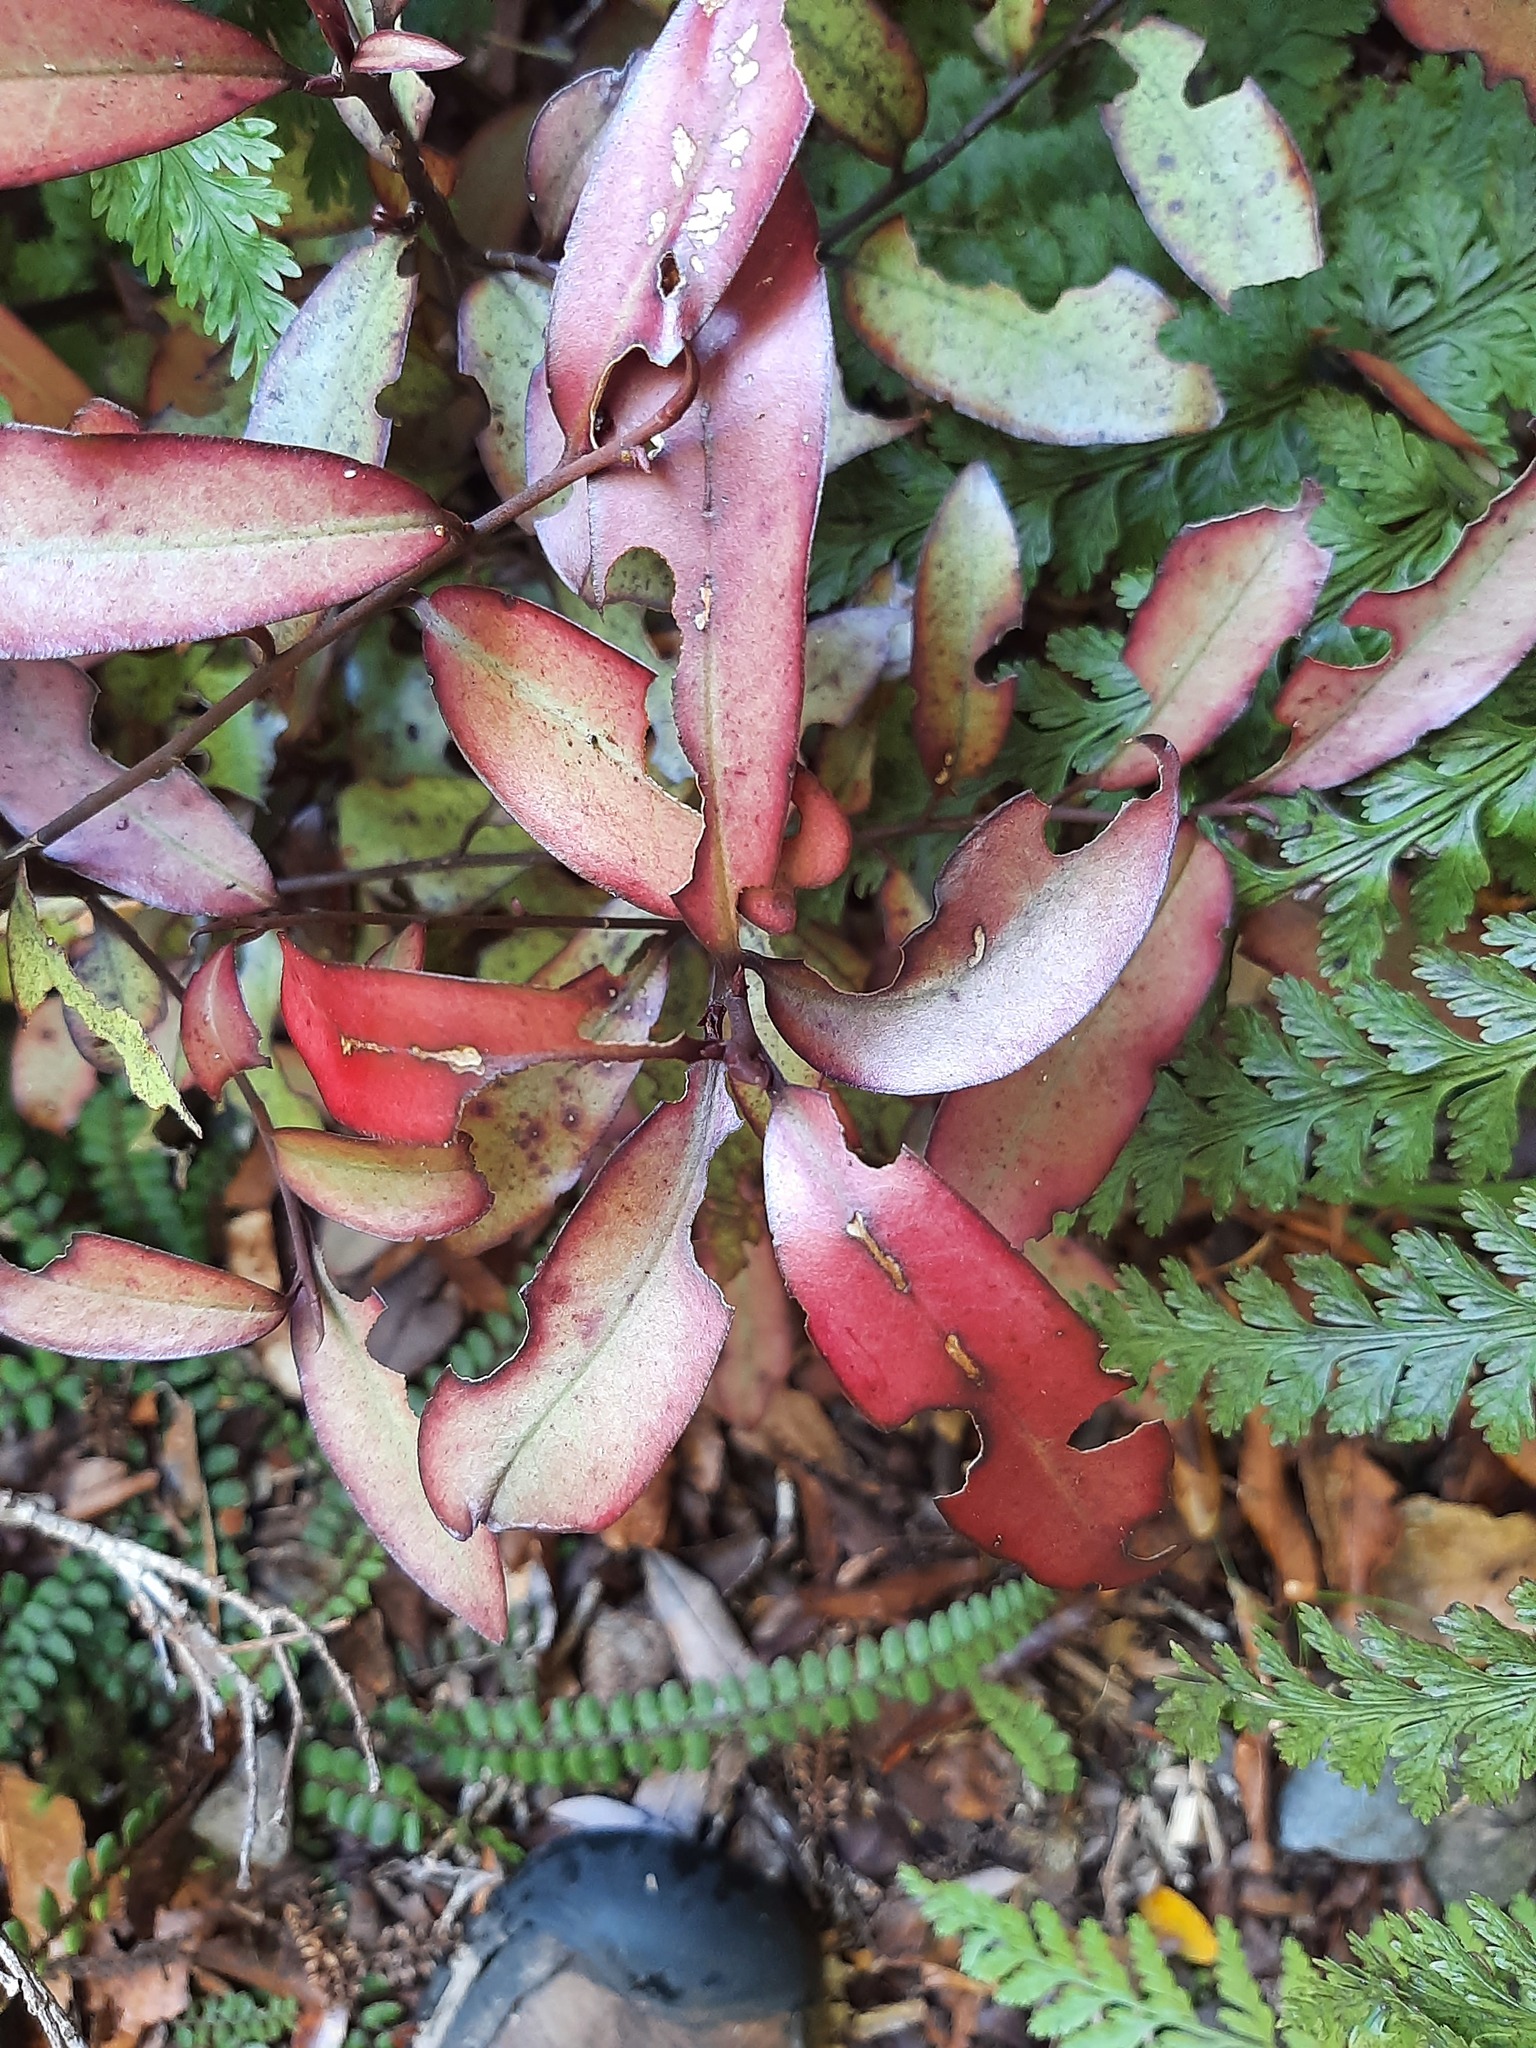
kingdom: Plantae
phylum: Tracheophyta
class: Magnoliopsida
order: Canellales
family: Winteraceae
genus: Pseudowintera
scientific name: Pseudowintera colorata
